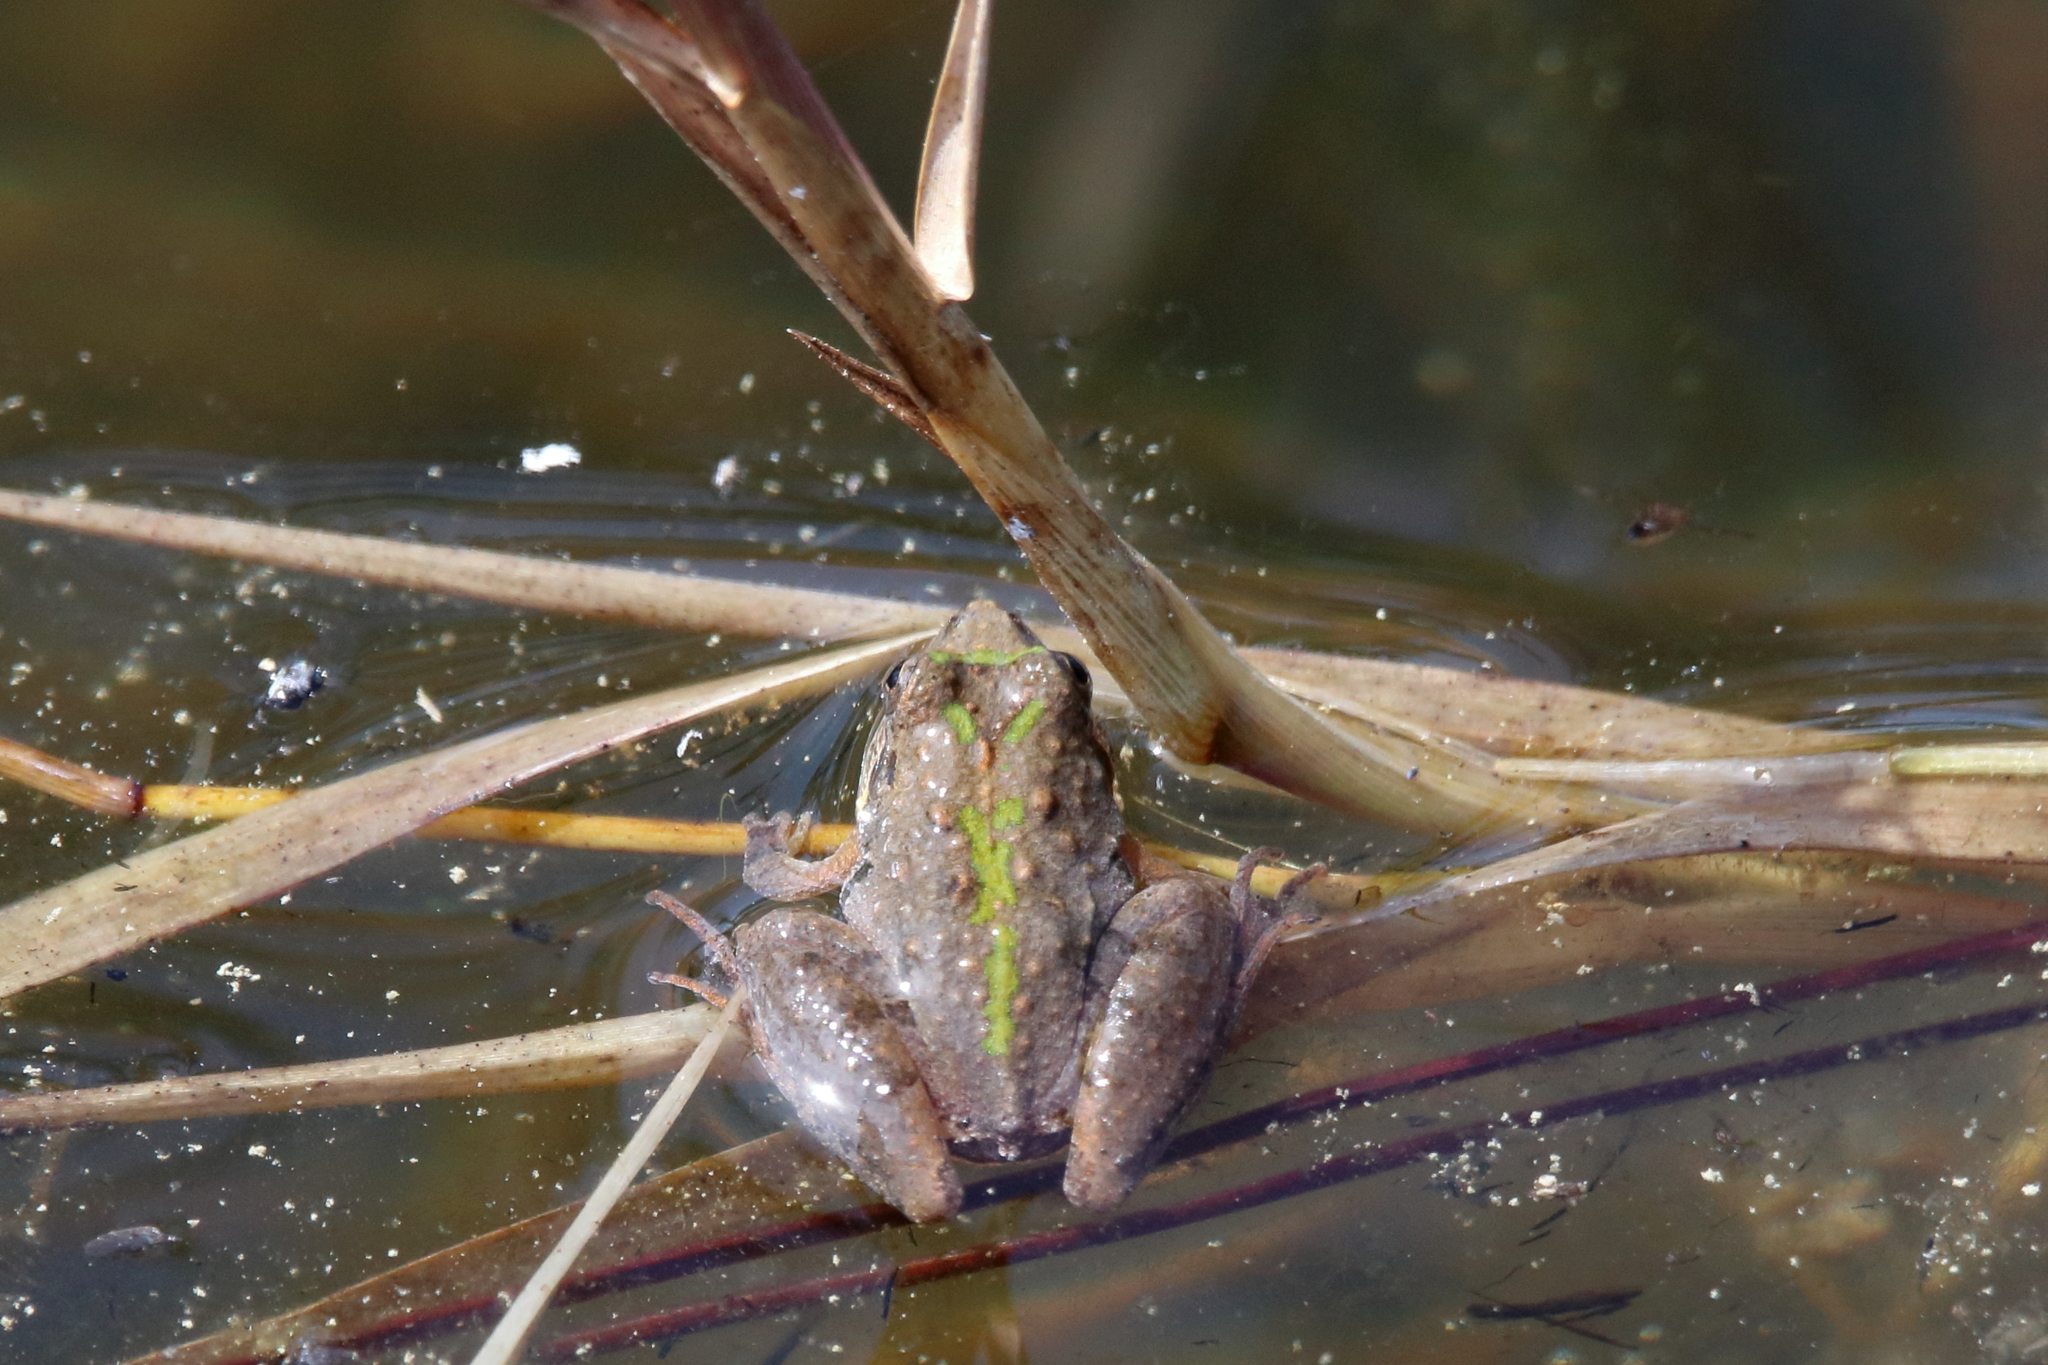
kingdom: Animalia
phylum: Chordata
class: Amphibia
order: Anura
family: Hylidae
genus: Acris
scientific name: Acris gryllus
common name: Southern cricket frog
